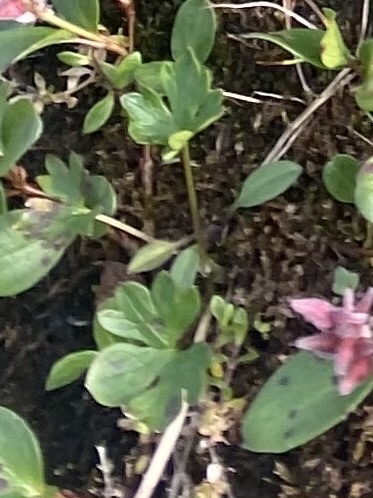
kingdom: Plantae
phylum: Tracheophyta
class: Magnoliopsida
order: Ranunculales
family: Ranunculaceae
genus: Ranunculus
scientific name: Ranunculus sulphureus
